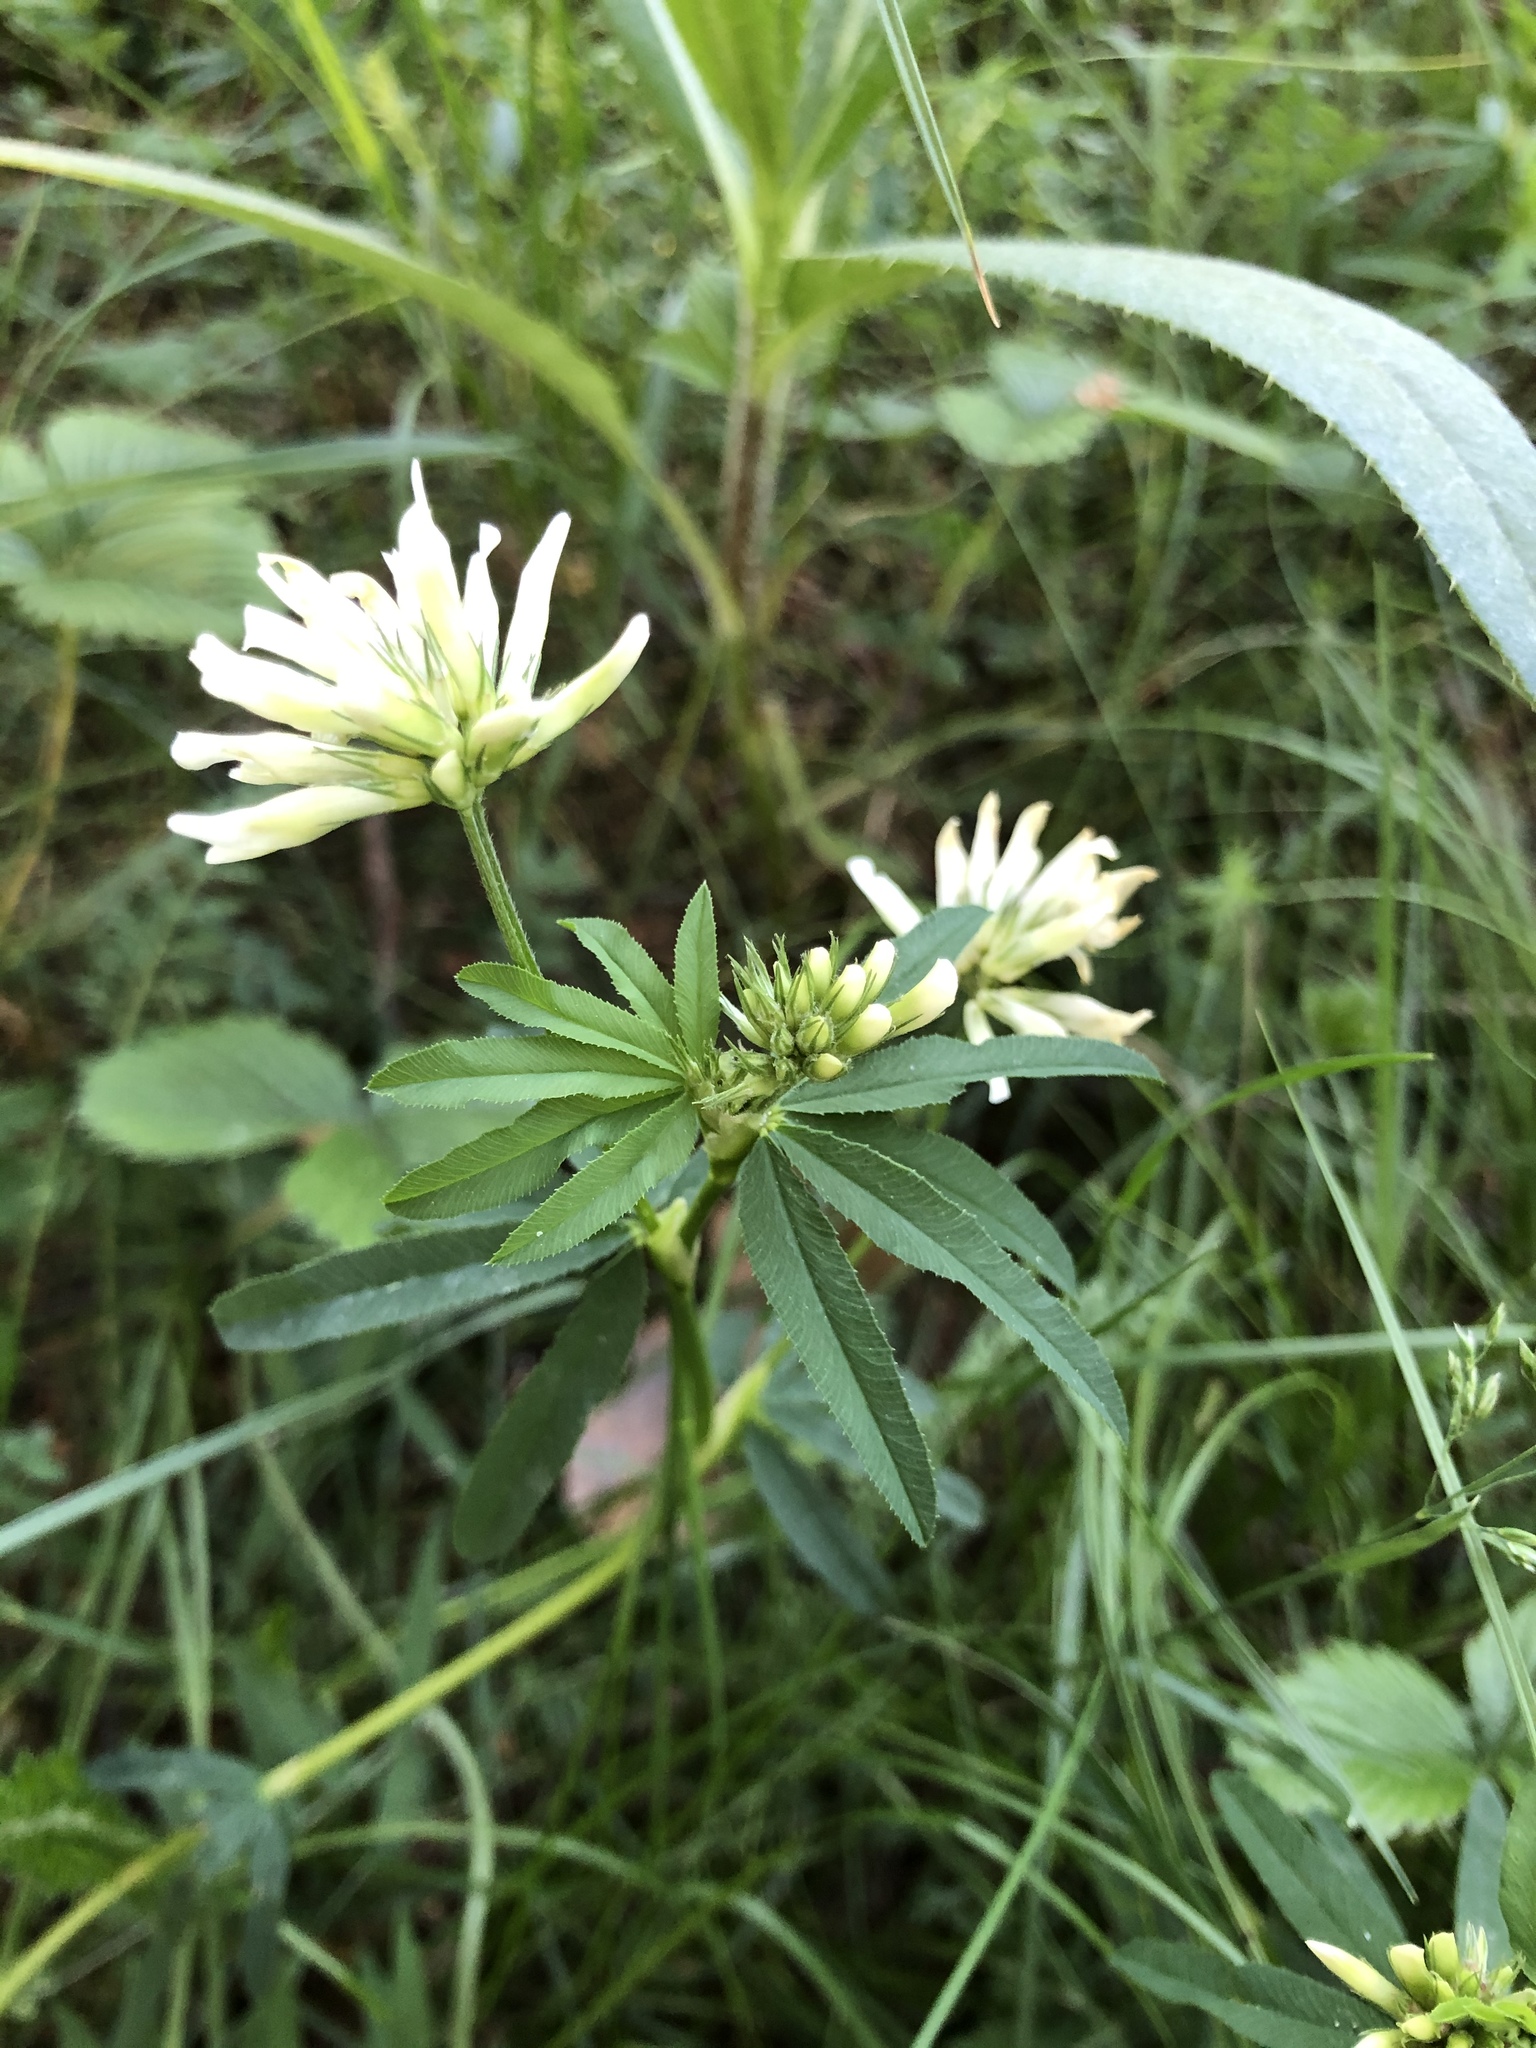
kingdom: Plantae
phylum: Tracheophyta
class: Magnoliopsida
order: Fabales
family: Fabaceae
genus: Trifolium
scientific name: Trifolium lupinaster
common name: Lupine clover
